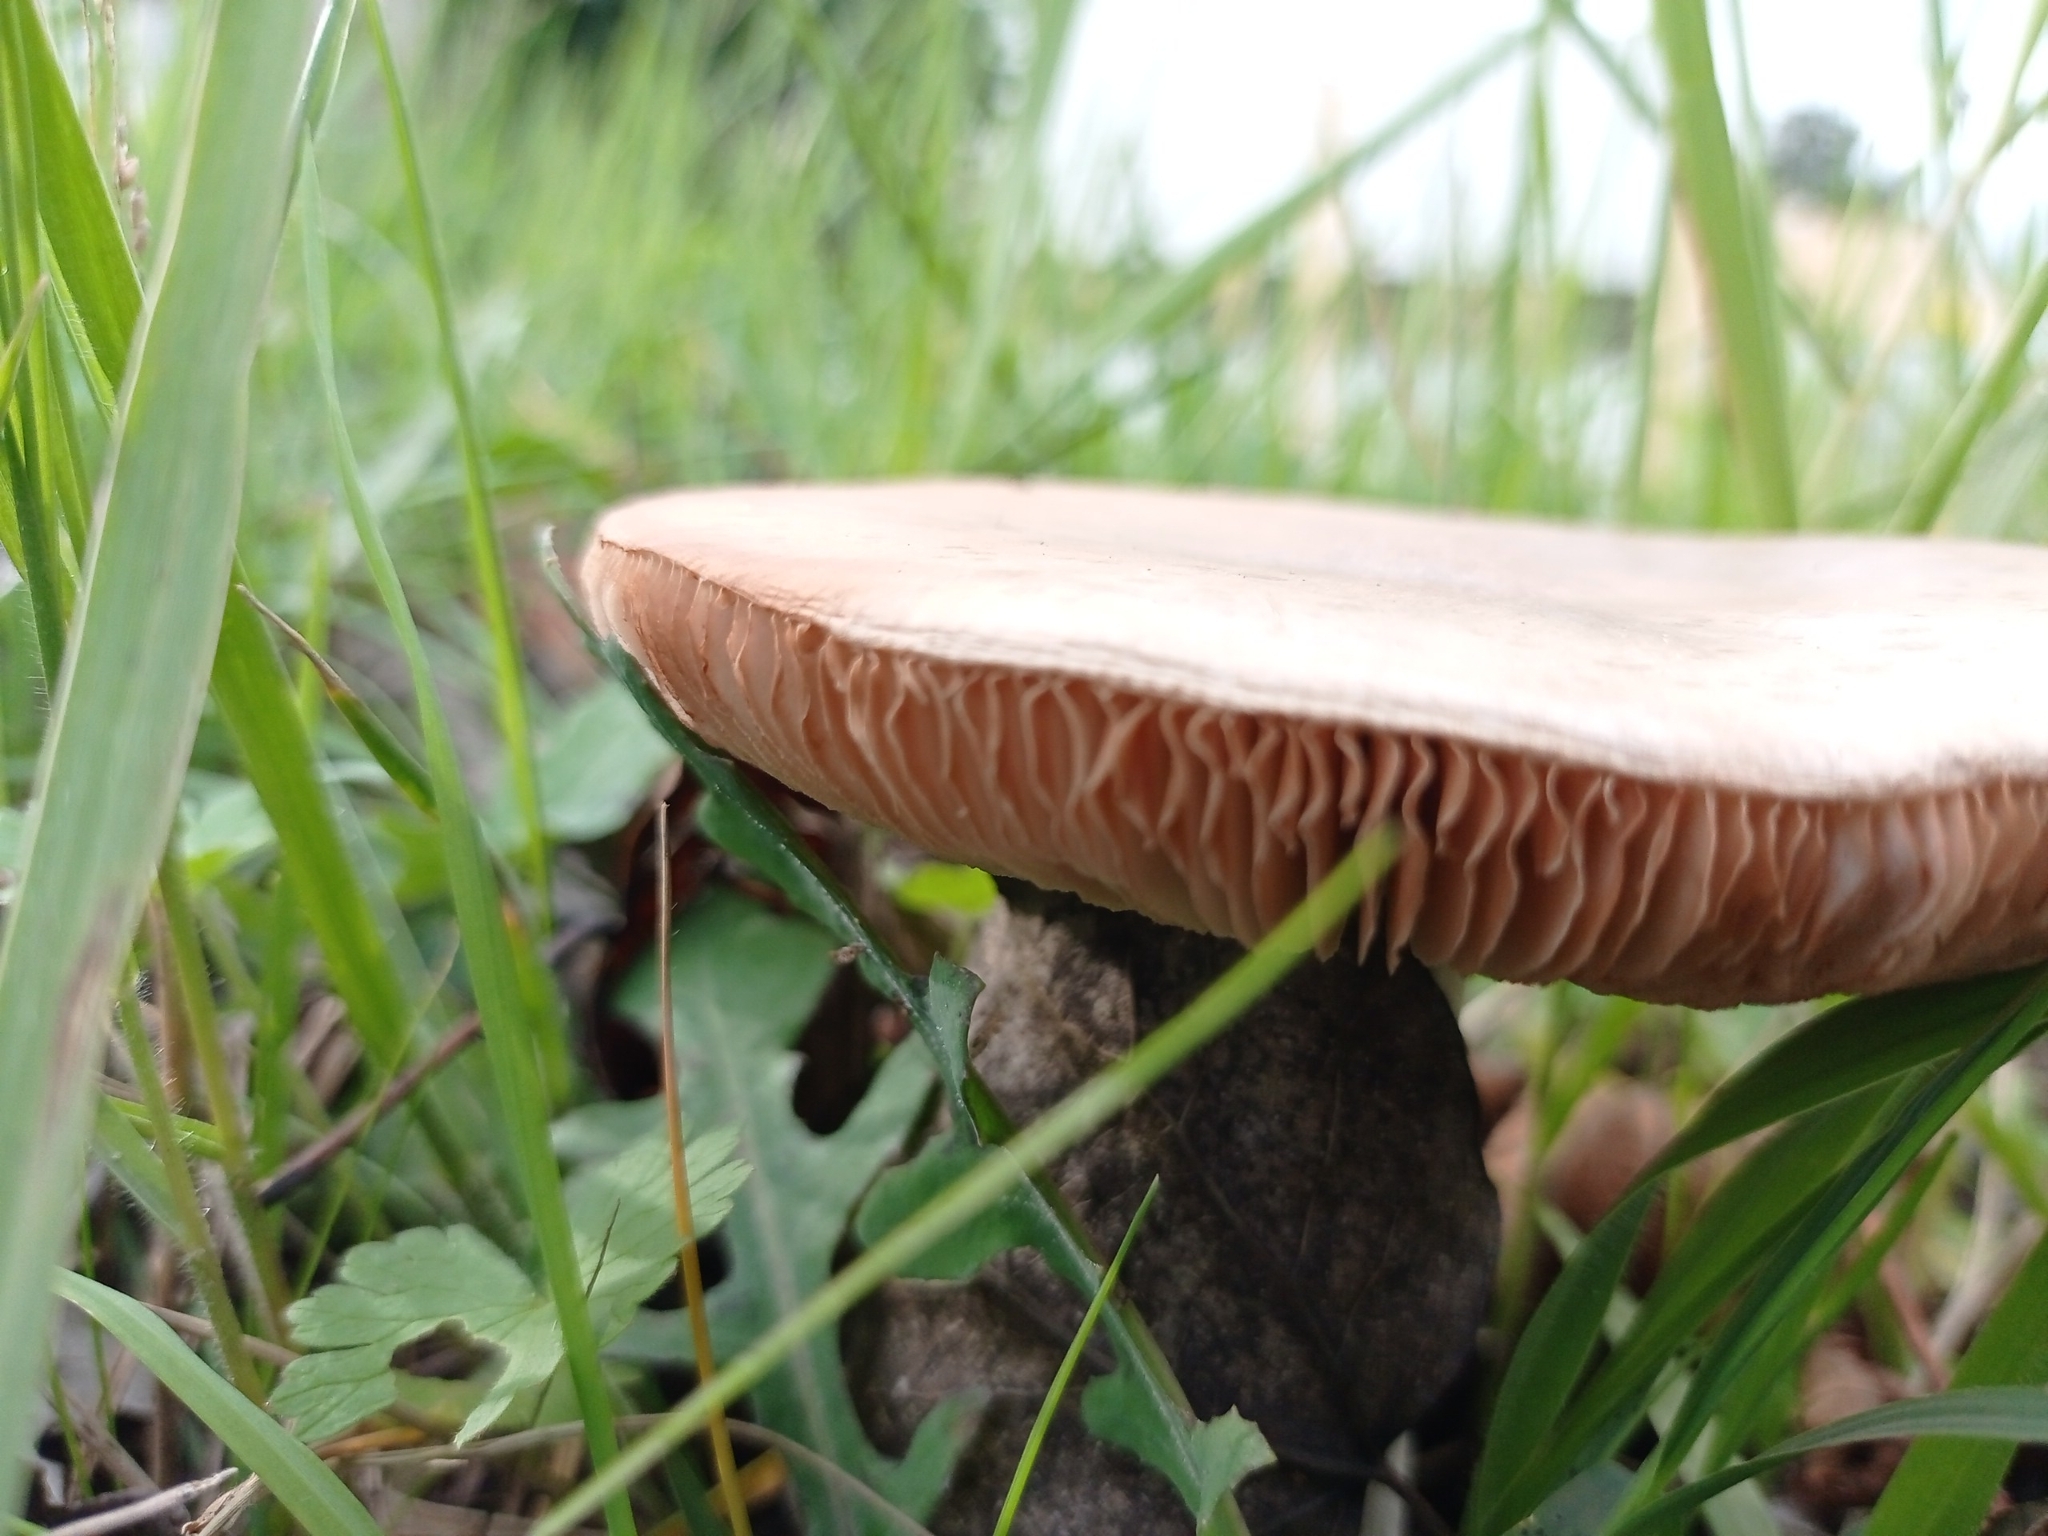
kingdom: Fungi
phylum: Basidiomycota
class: Agaricomycetes
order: Agaricales
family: Pluteaceae
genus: Volvopluteus
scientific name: Volvopluteus gloiocephalus
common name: Stubble rosegill
